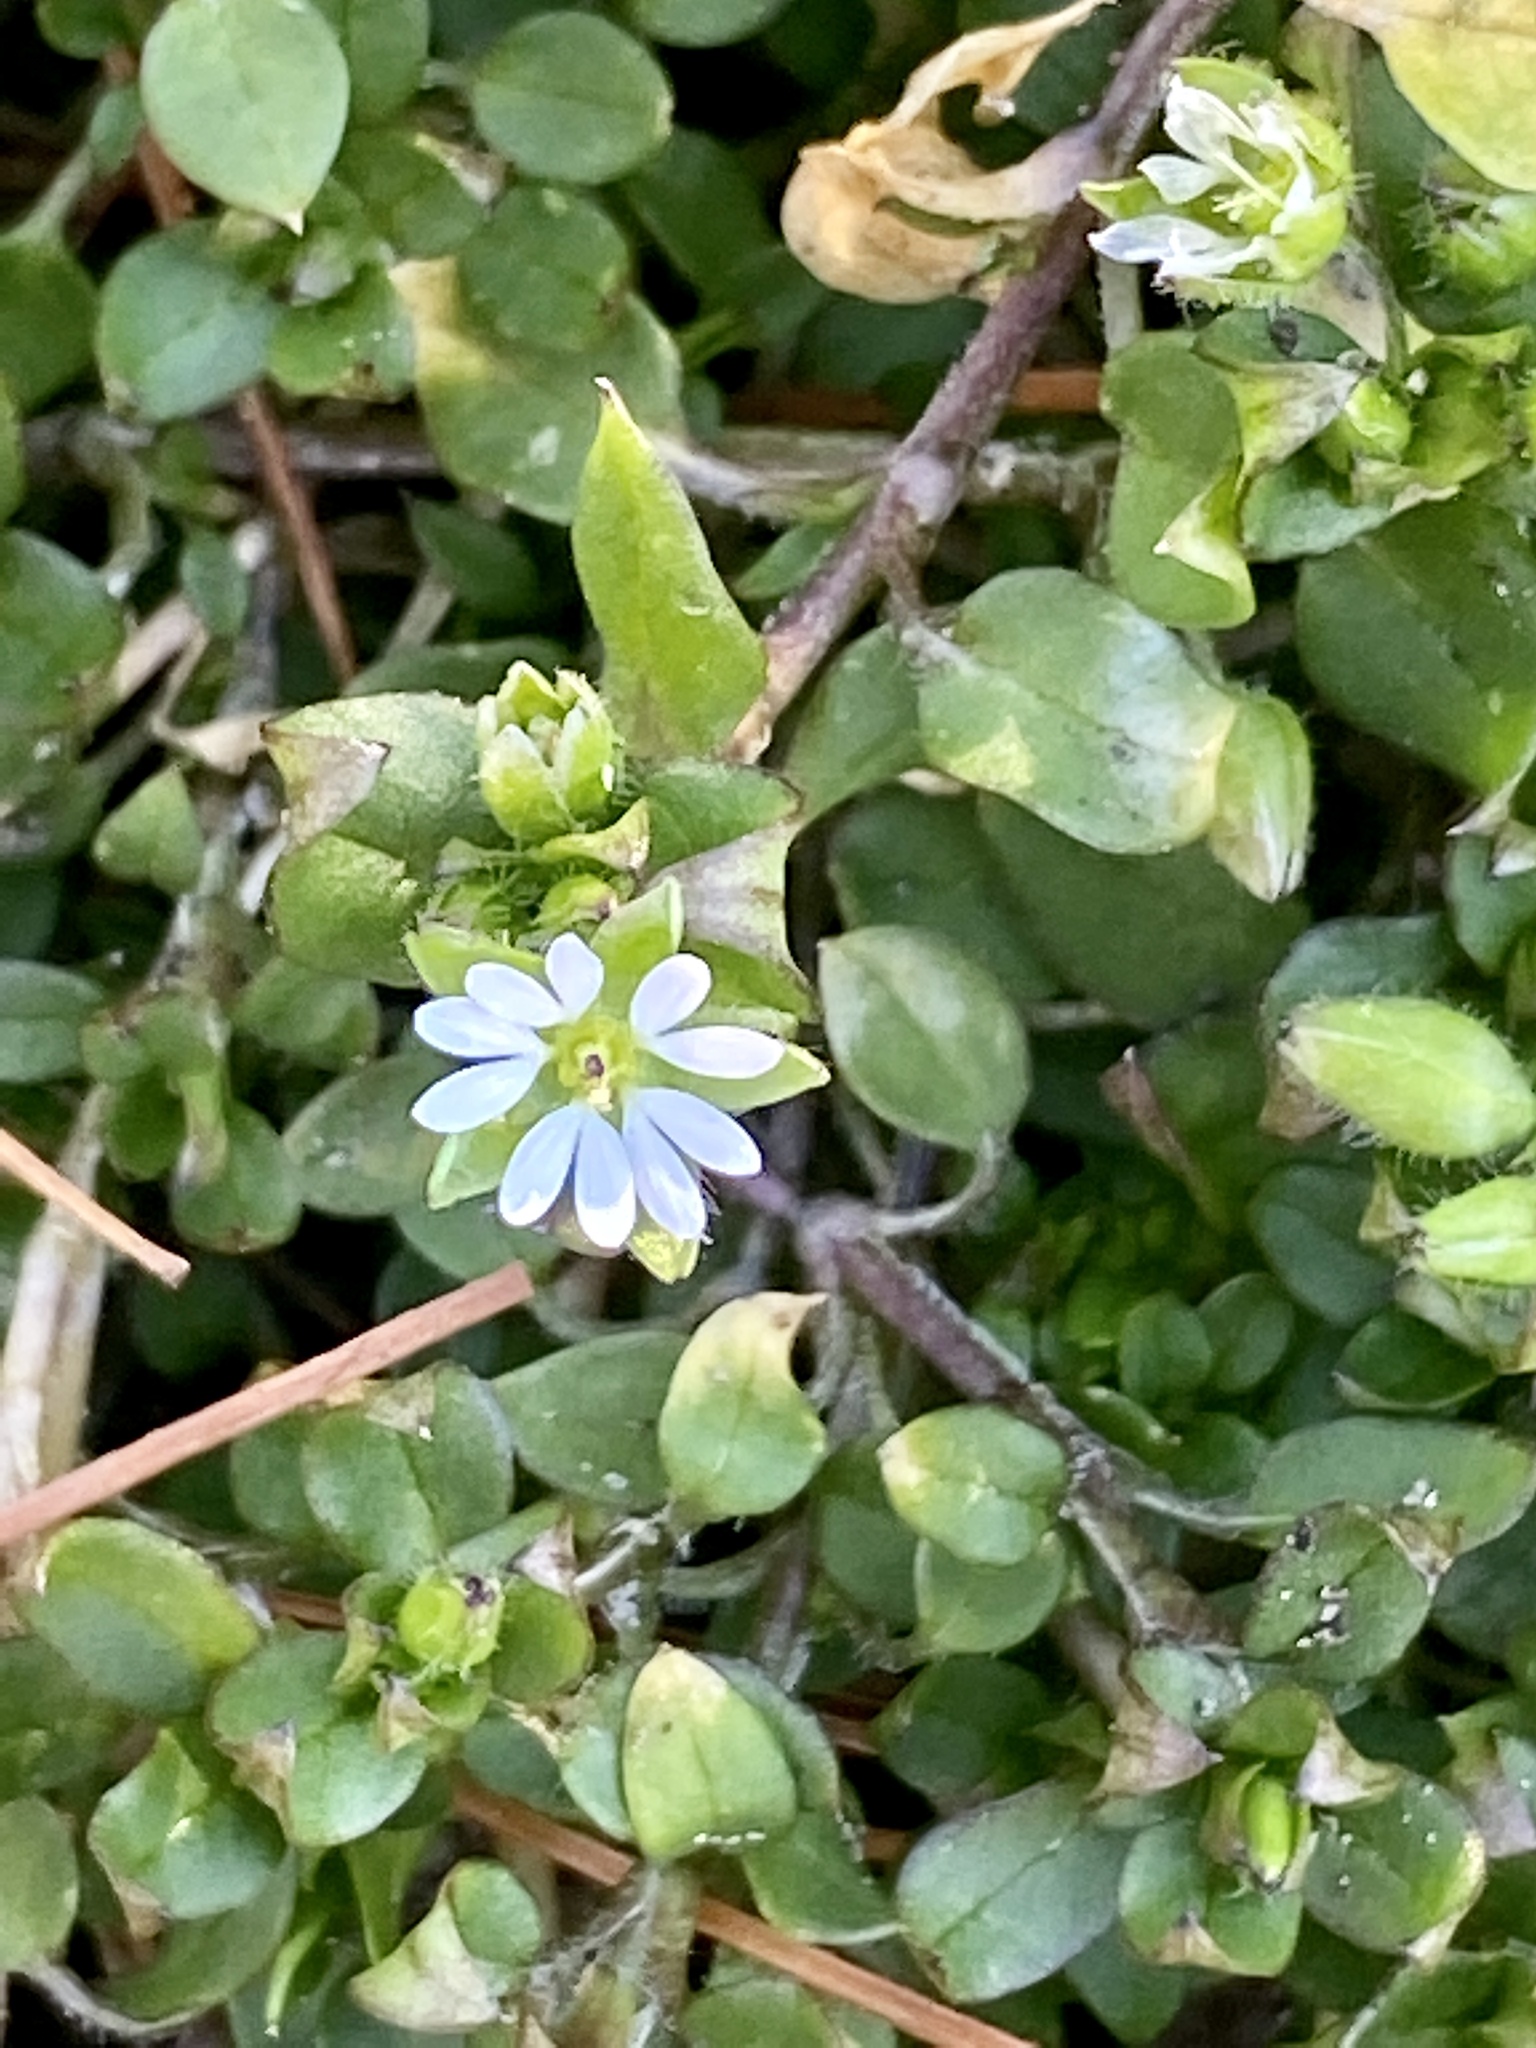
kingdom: Plantae
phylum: Tracheophyta
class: Magnoliopsida
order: Caryophyllales
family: Caryophyllaceae
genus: Stellaria
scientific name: Stellaria media
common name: Common chickweed
